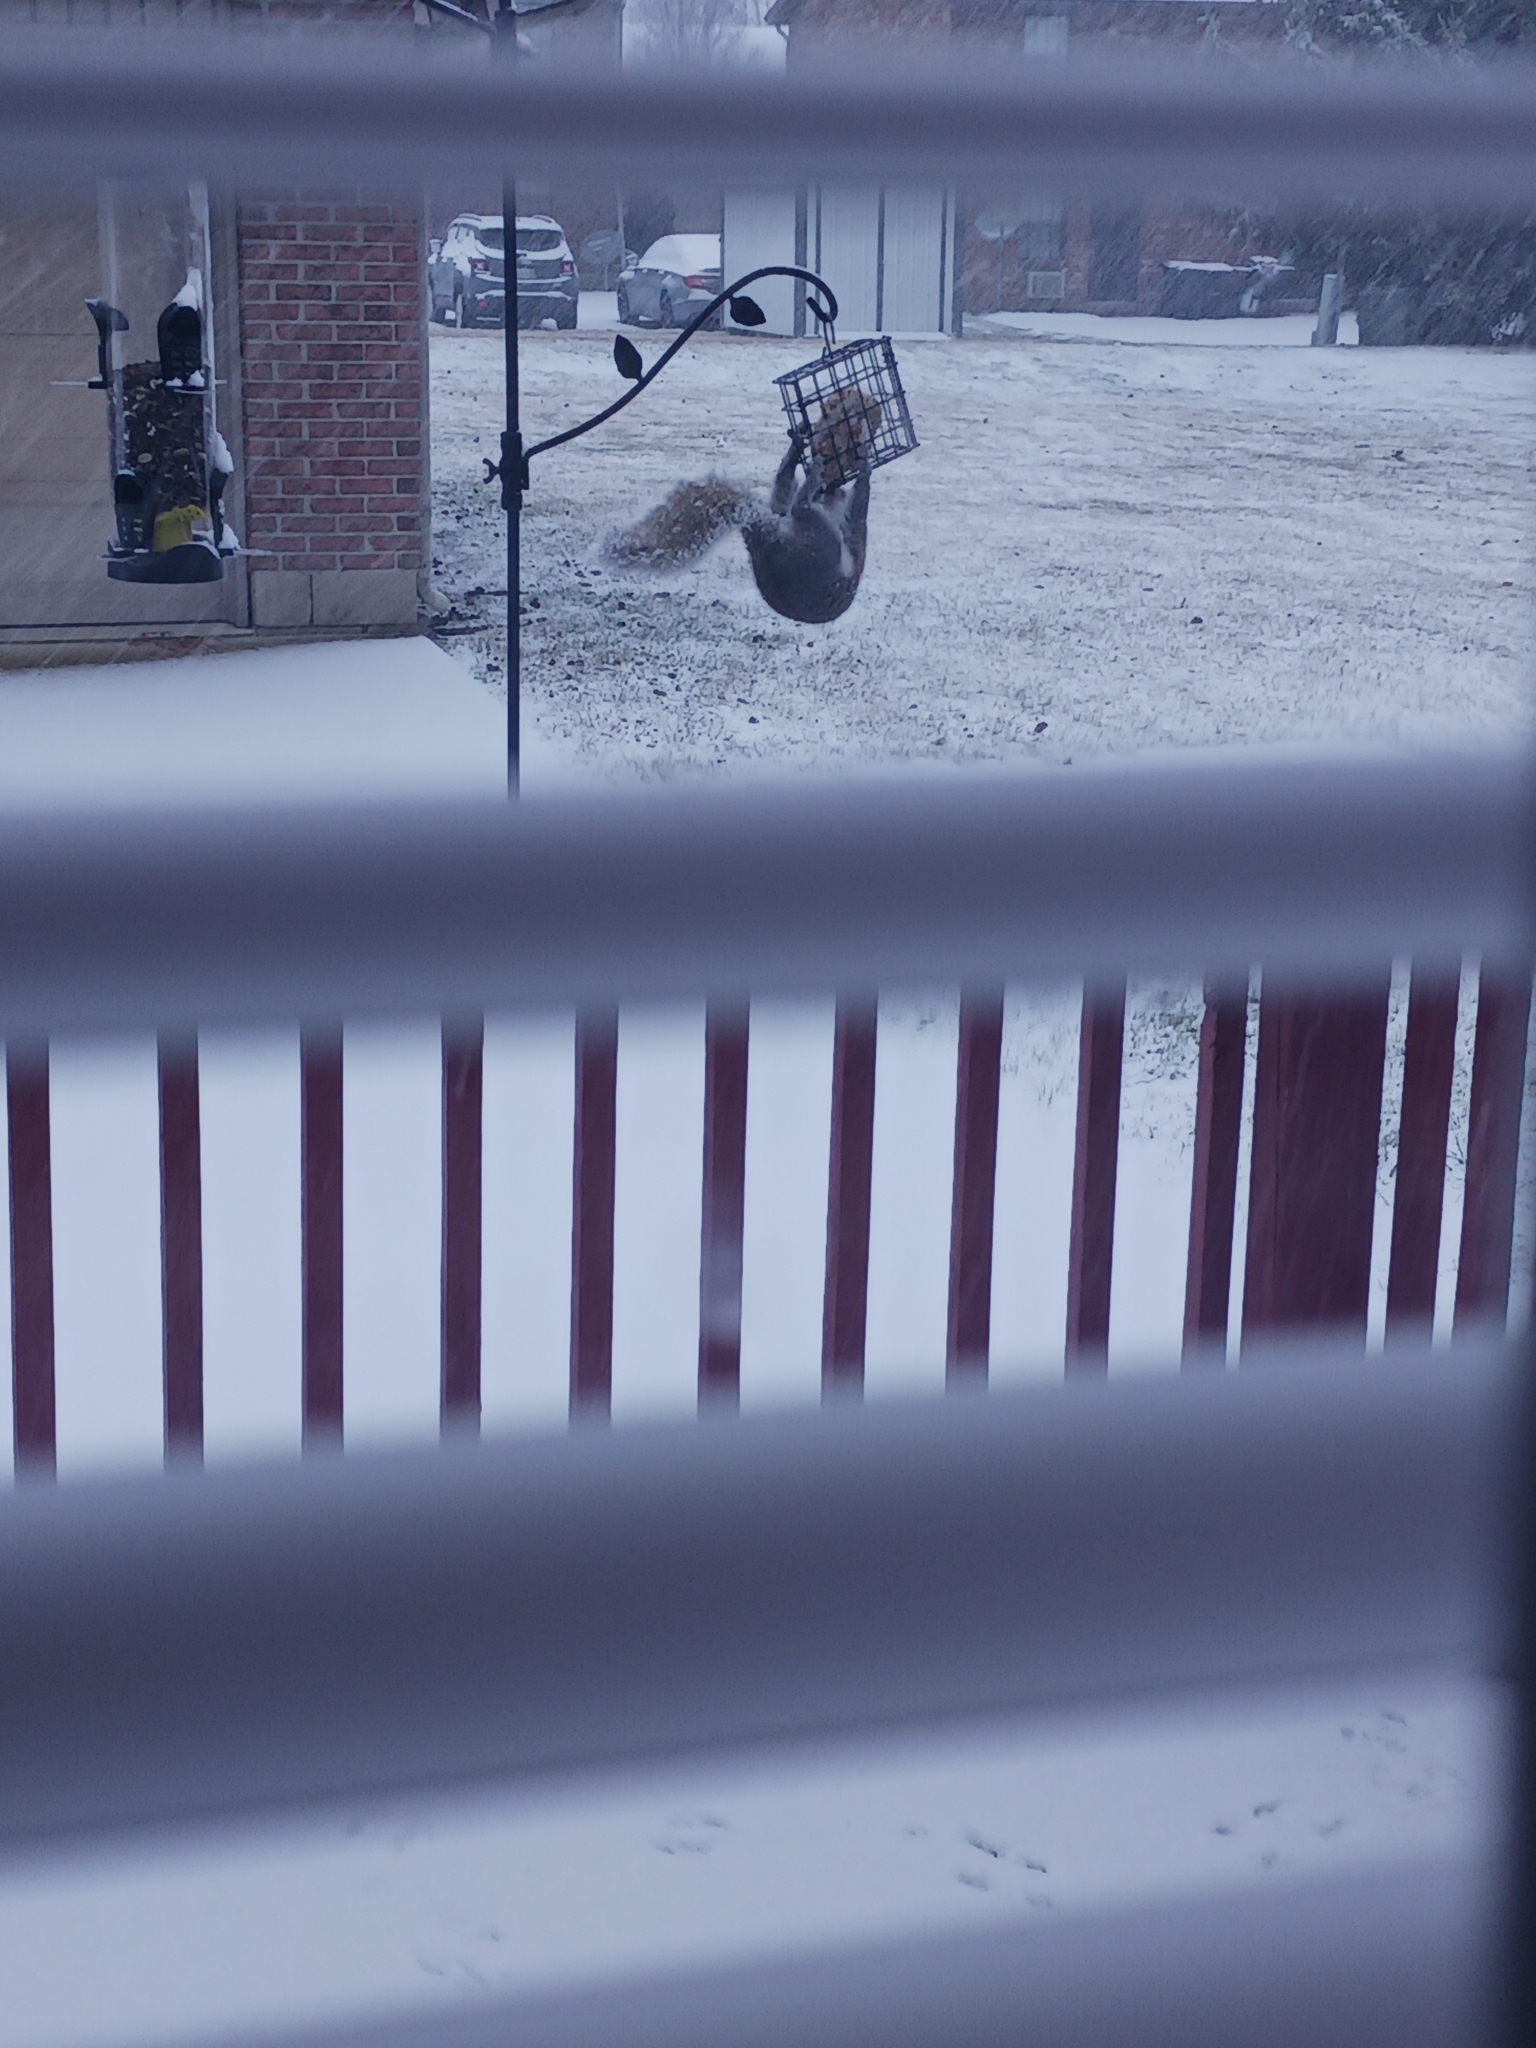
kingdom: Animalia
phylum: Chordata
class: Mammalia
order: Rodentia
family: Sciuridae
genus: Sciurus
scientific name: Sciurus carolinensis
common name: Eastern gray squirrel
